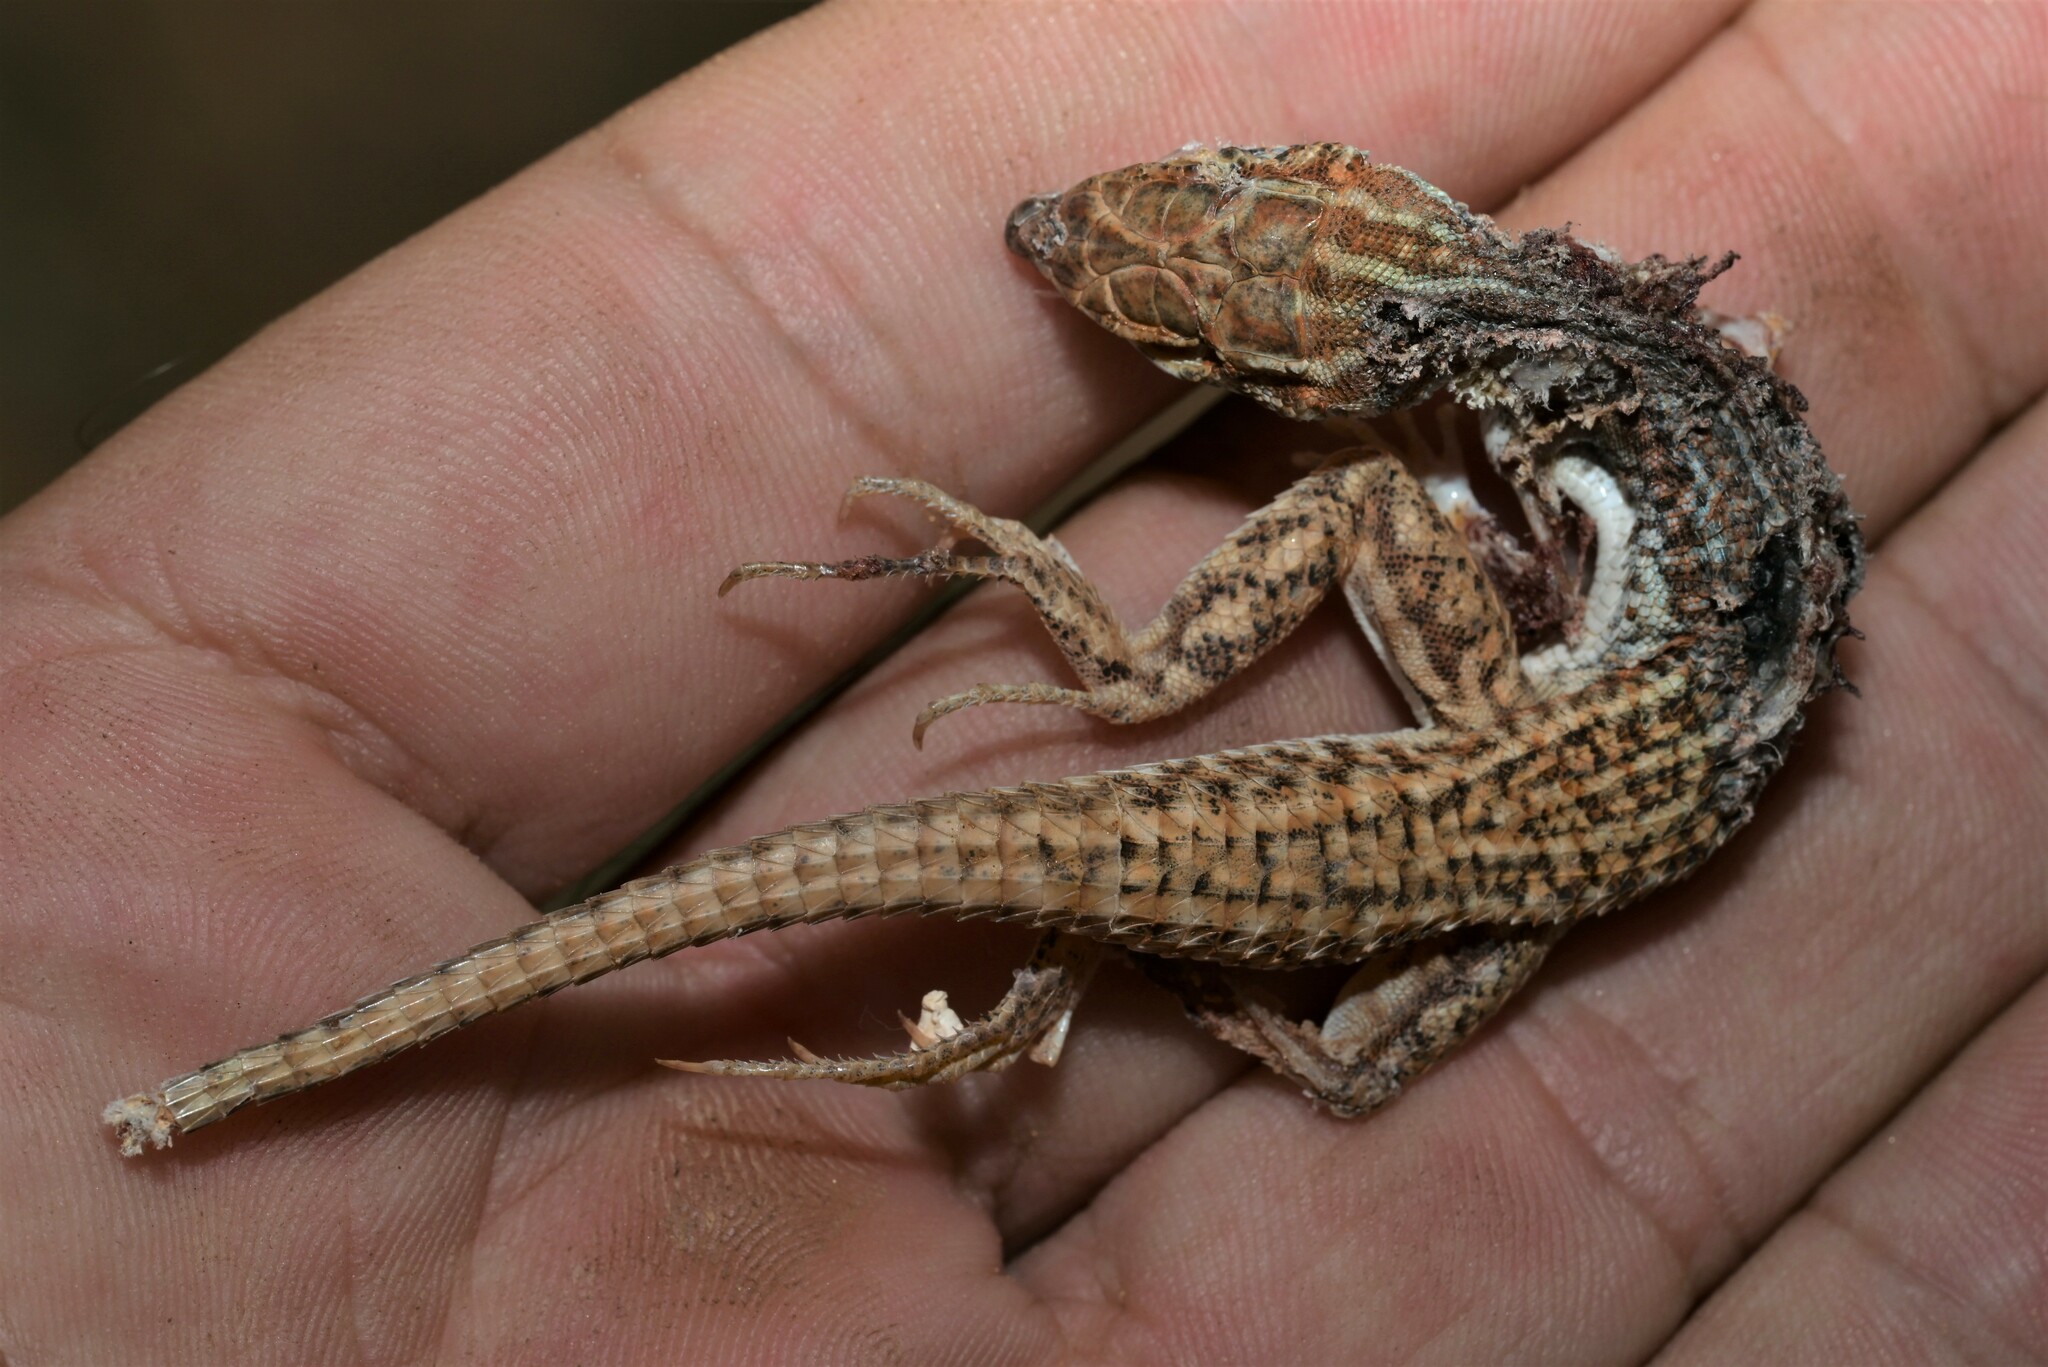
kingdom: Animalia
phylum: Chordata
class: Squamata
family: Lacertidae
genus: Acanthodactylus
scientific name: Acanthodactylus opheodurus
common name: Arnold's fringe-fingered lizard
